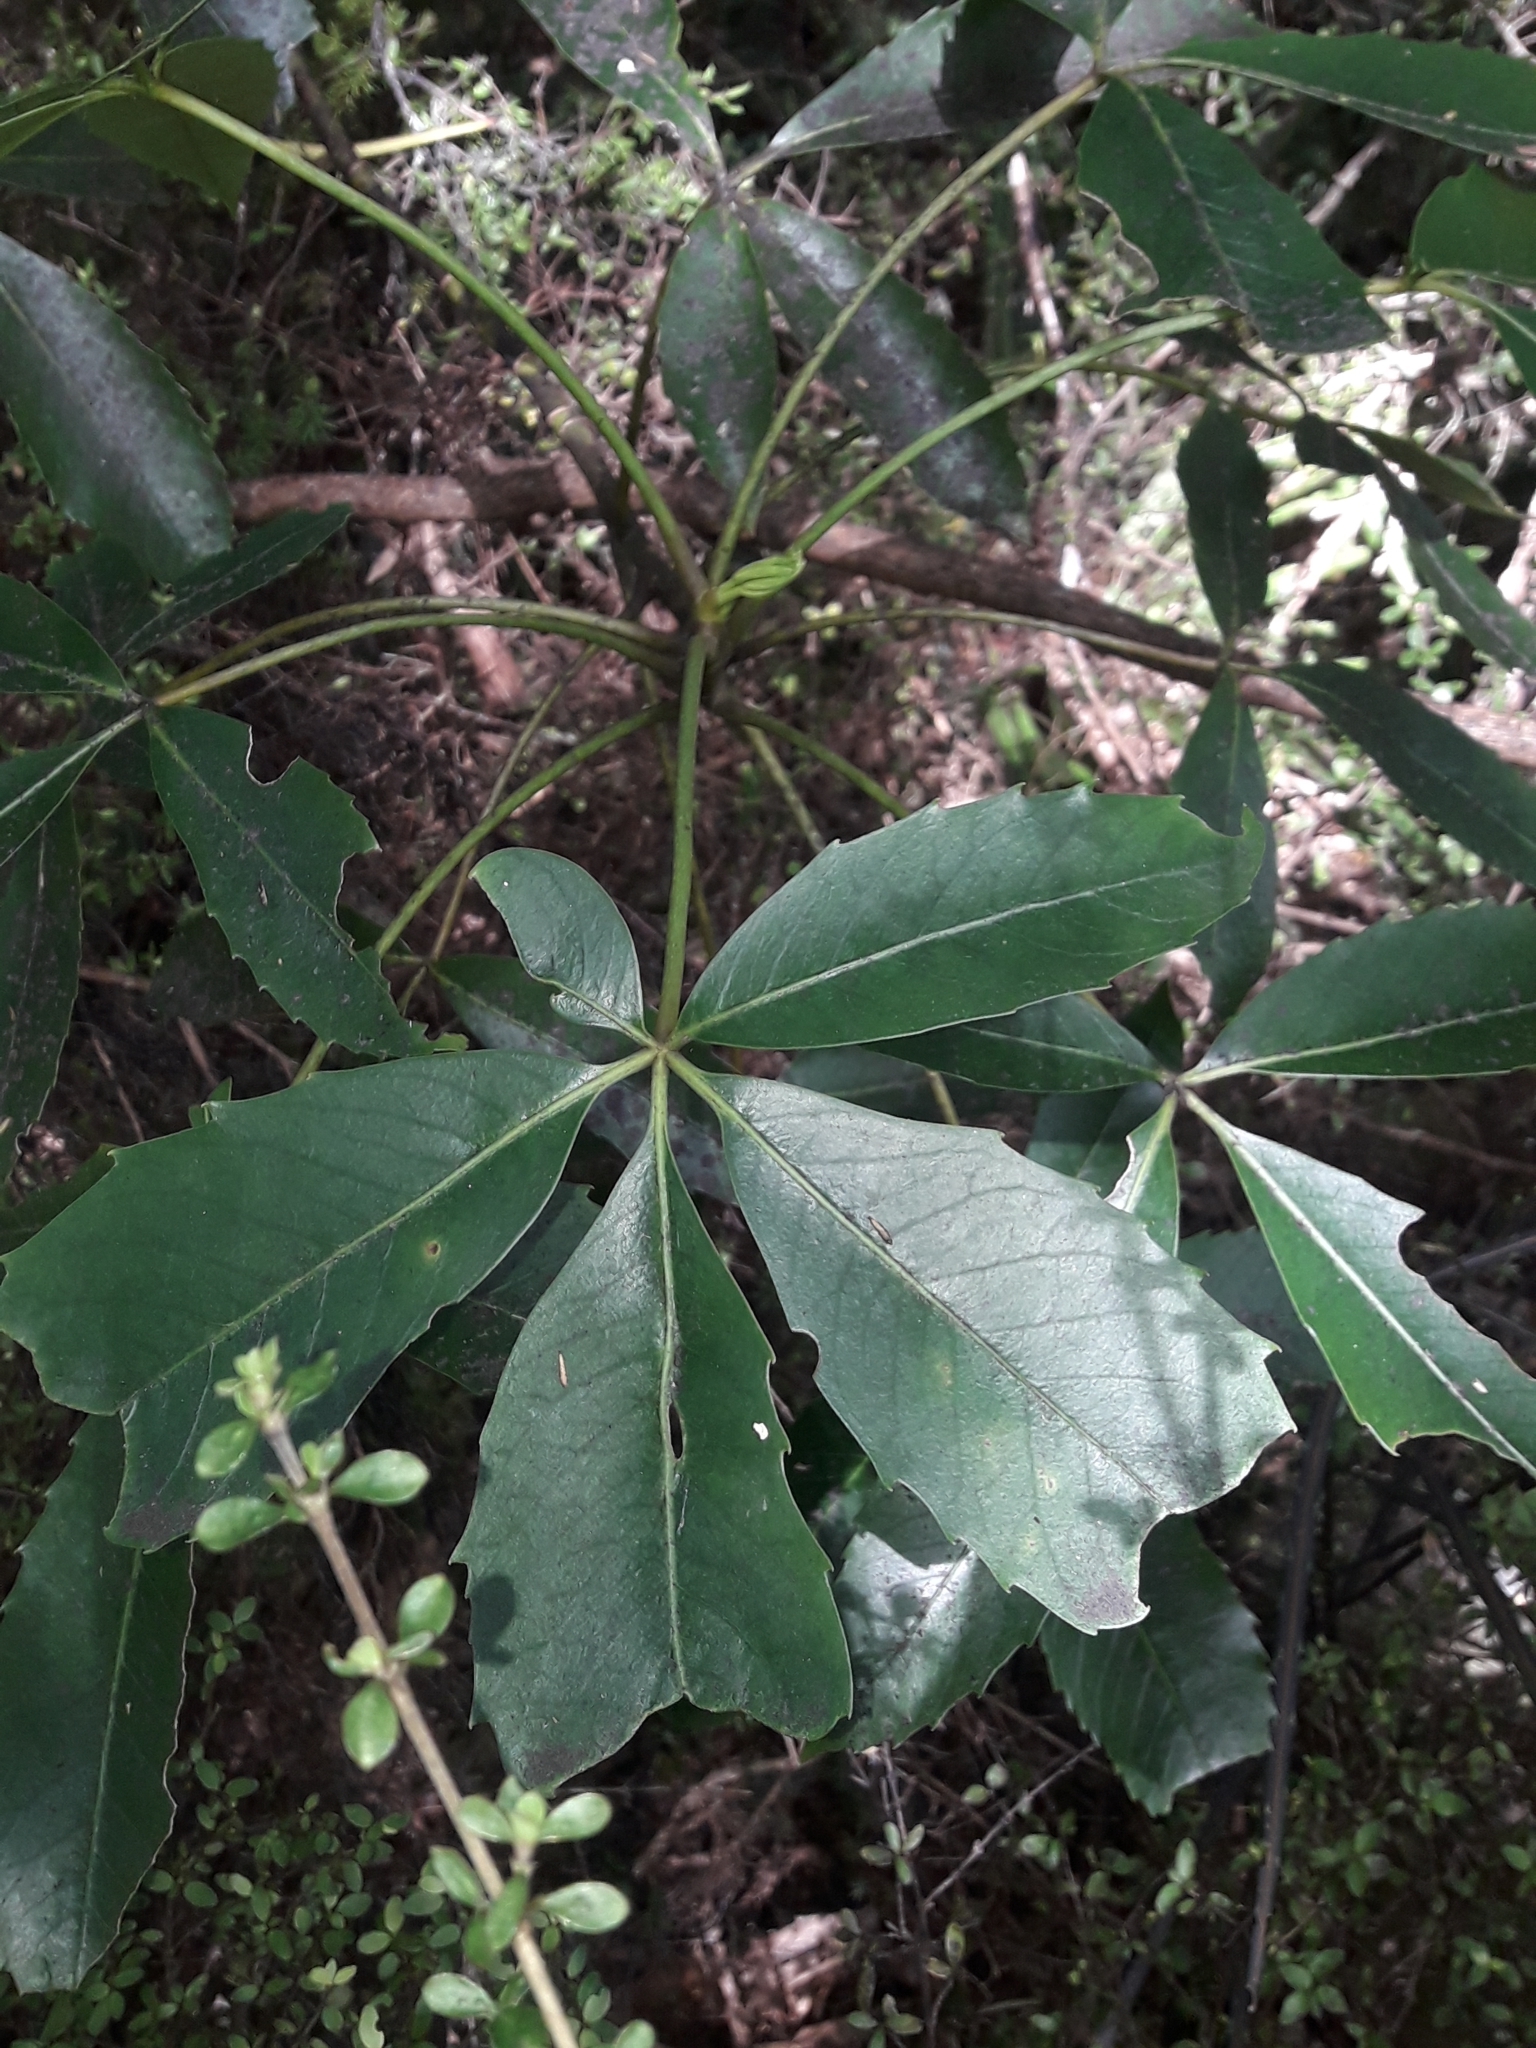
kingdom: Plantae
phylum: Tracheophyta
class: Magnoliopsida
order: Apiales
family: Araliaceae
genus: Neopanax
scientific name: Neopanax colensoi
